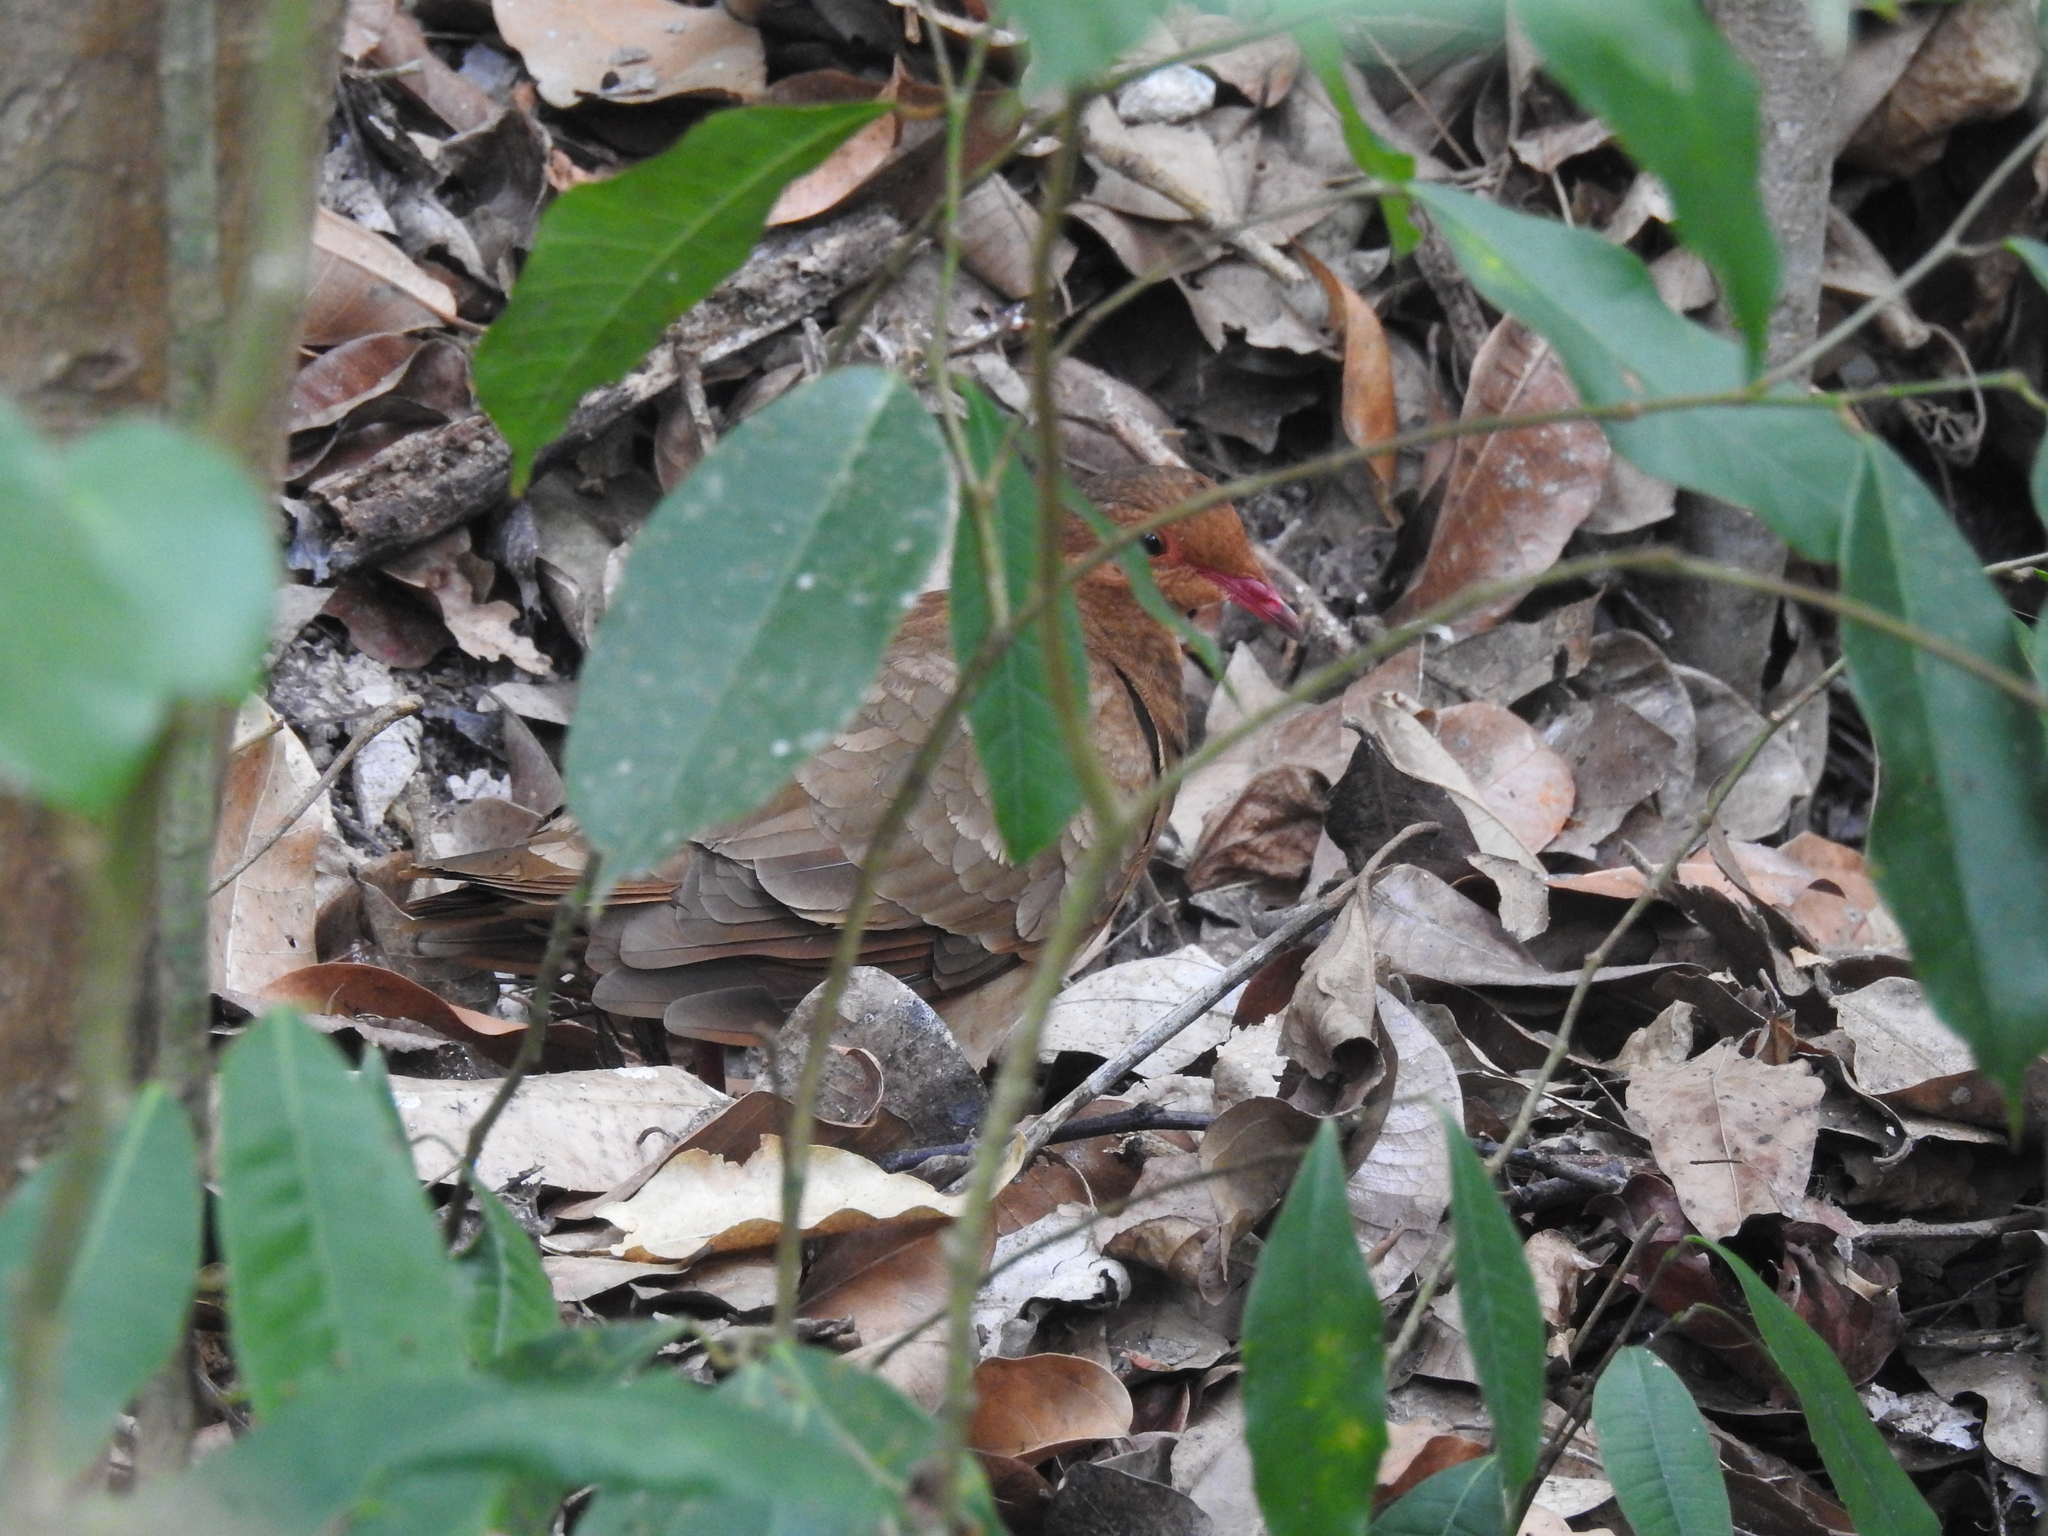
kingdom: Animalia
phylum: Chordata
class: Aves
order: Columbiformes
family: Columbidae
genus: Geotrygon
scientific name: Geotrygon montana
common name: Ruddy quail-dove
